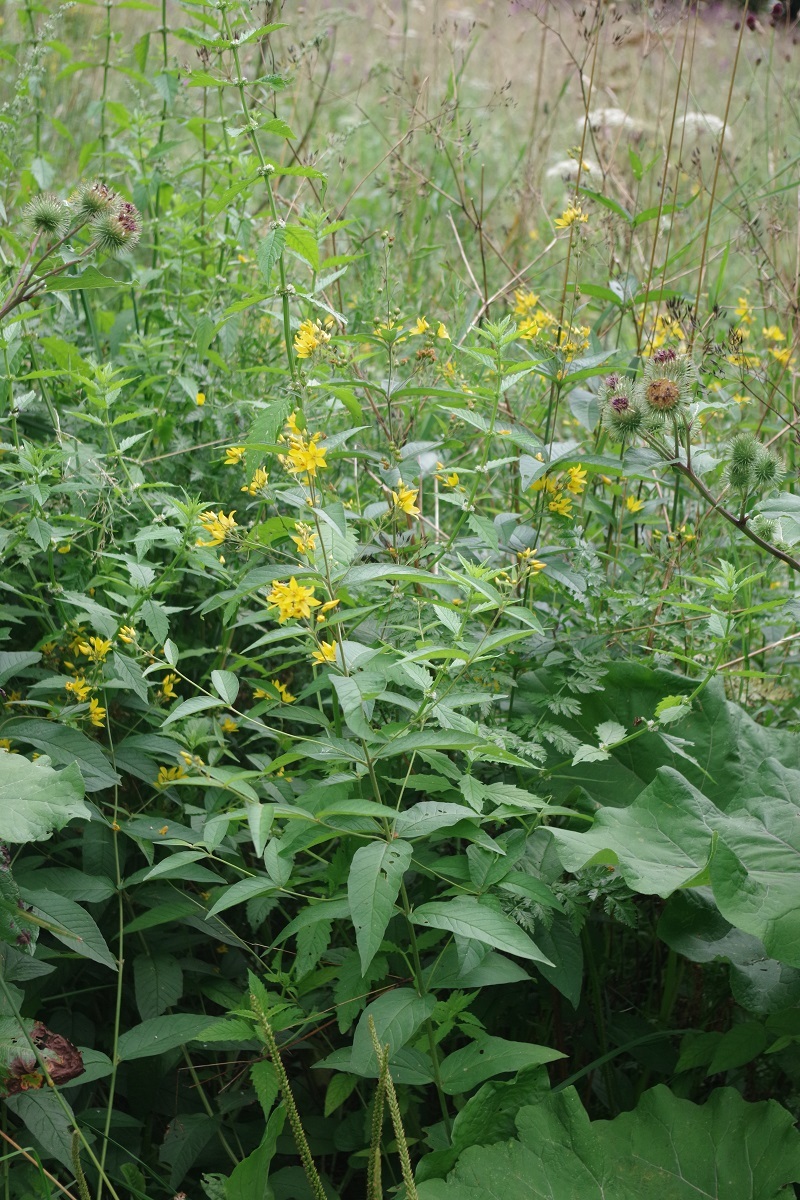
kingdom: Plantae
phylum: Tracheophyta
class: Magnoliopsida
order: Ericales
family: Primulaceae
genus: Lysimachia
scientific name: Lysimachia vulgaris
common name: Yellow loosestrife
